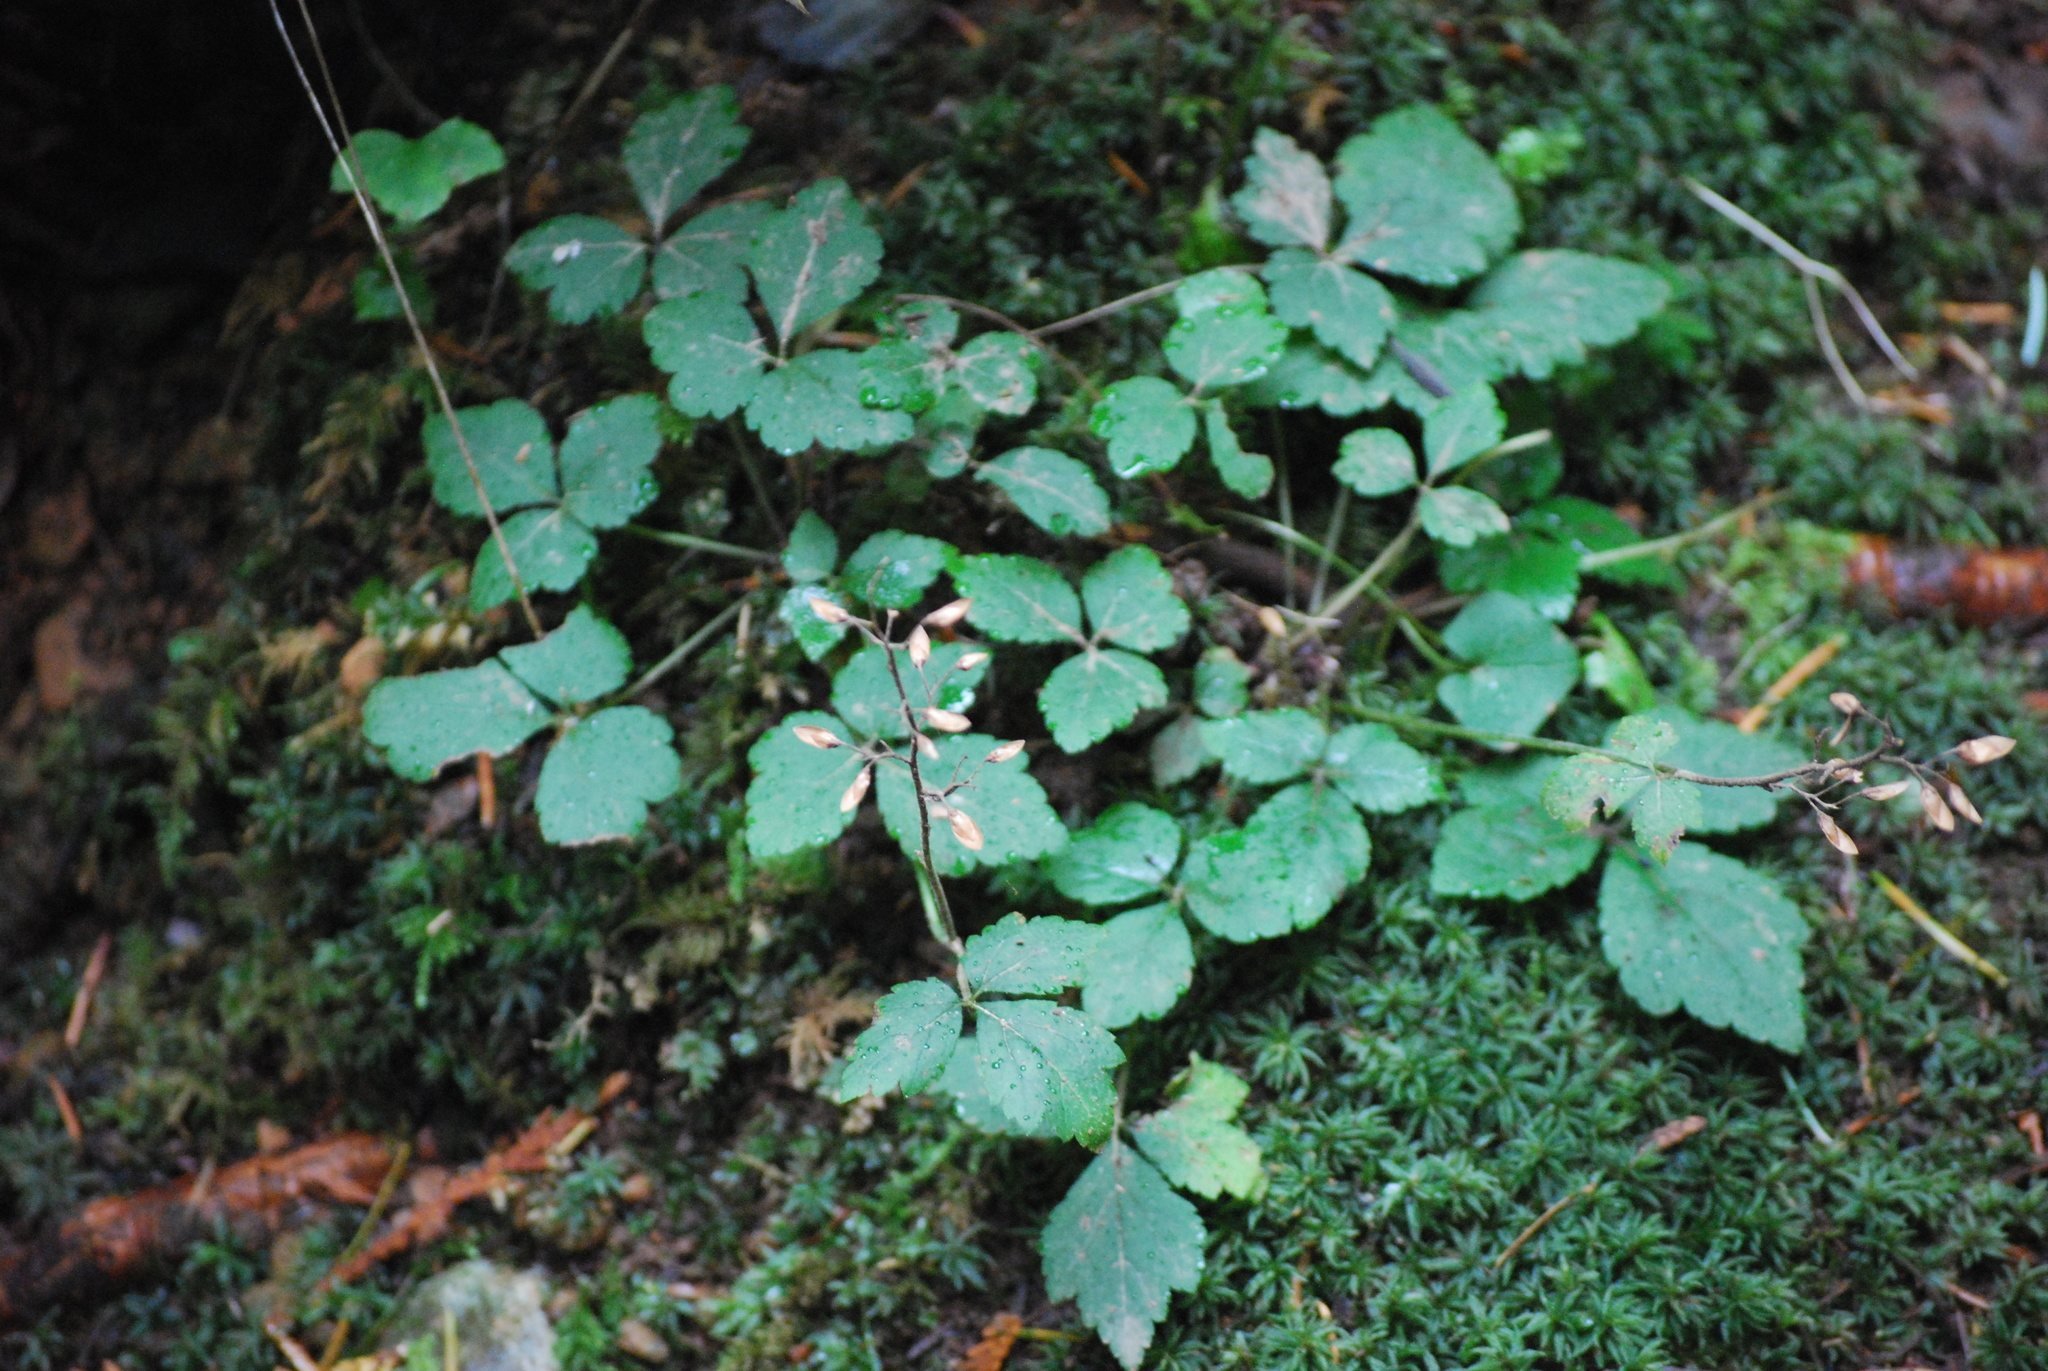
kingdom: Plantae
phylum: Tracheophyta
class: Magnoliopsida
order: Saxifragales
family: Saxifragaceae
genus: Tiarella
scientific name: Tiarella trifoliata
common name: Sugar-scoop
